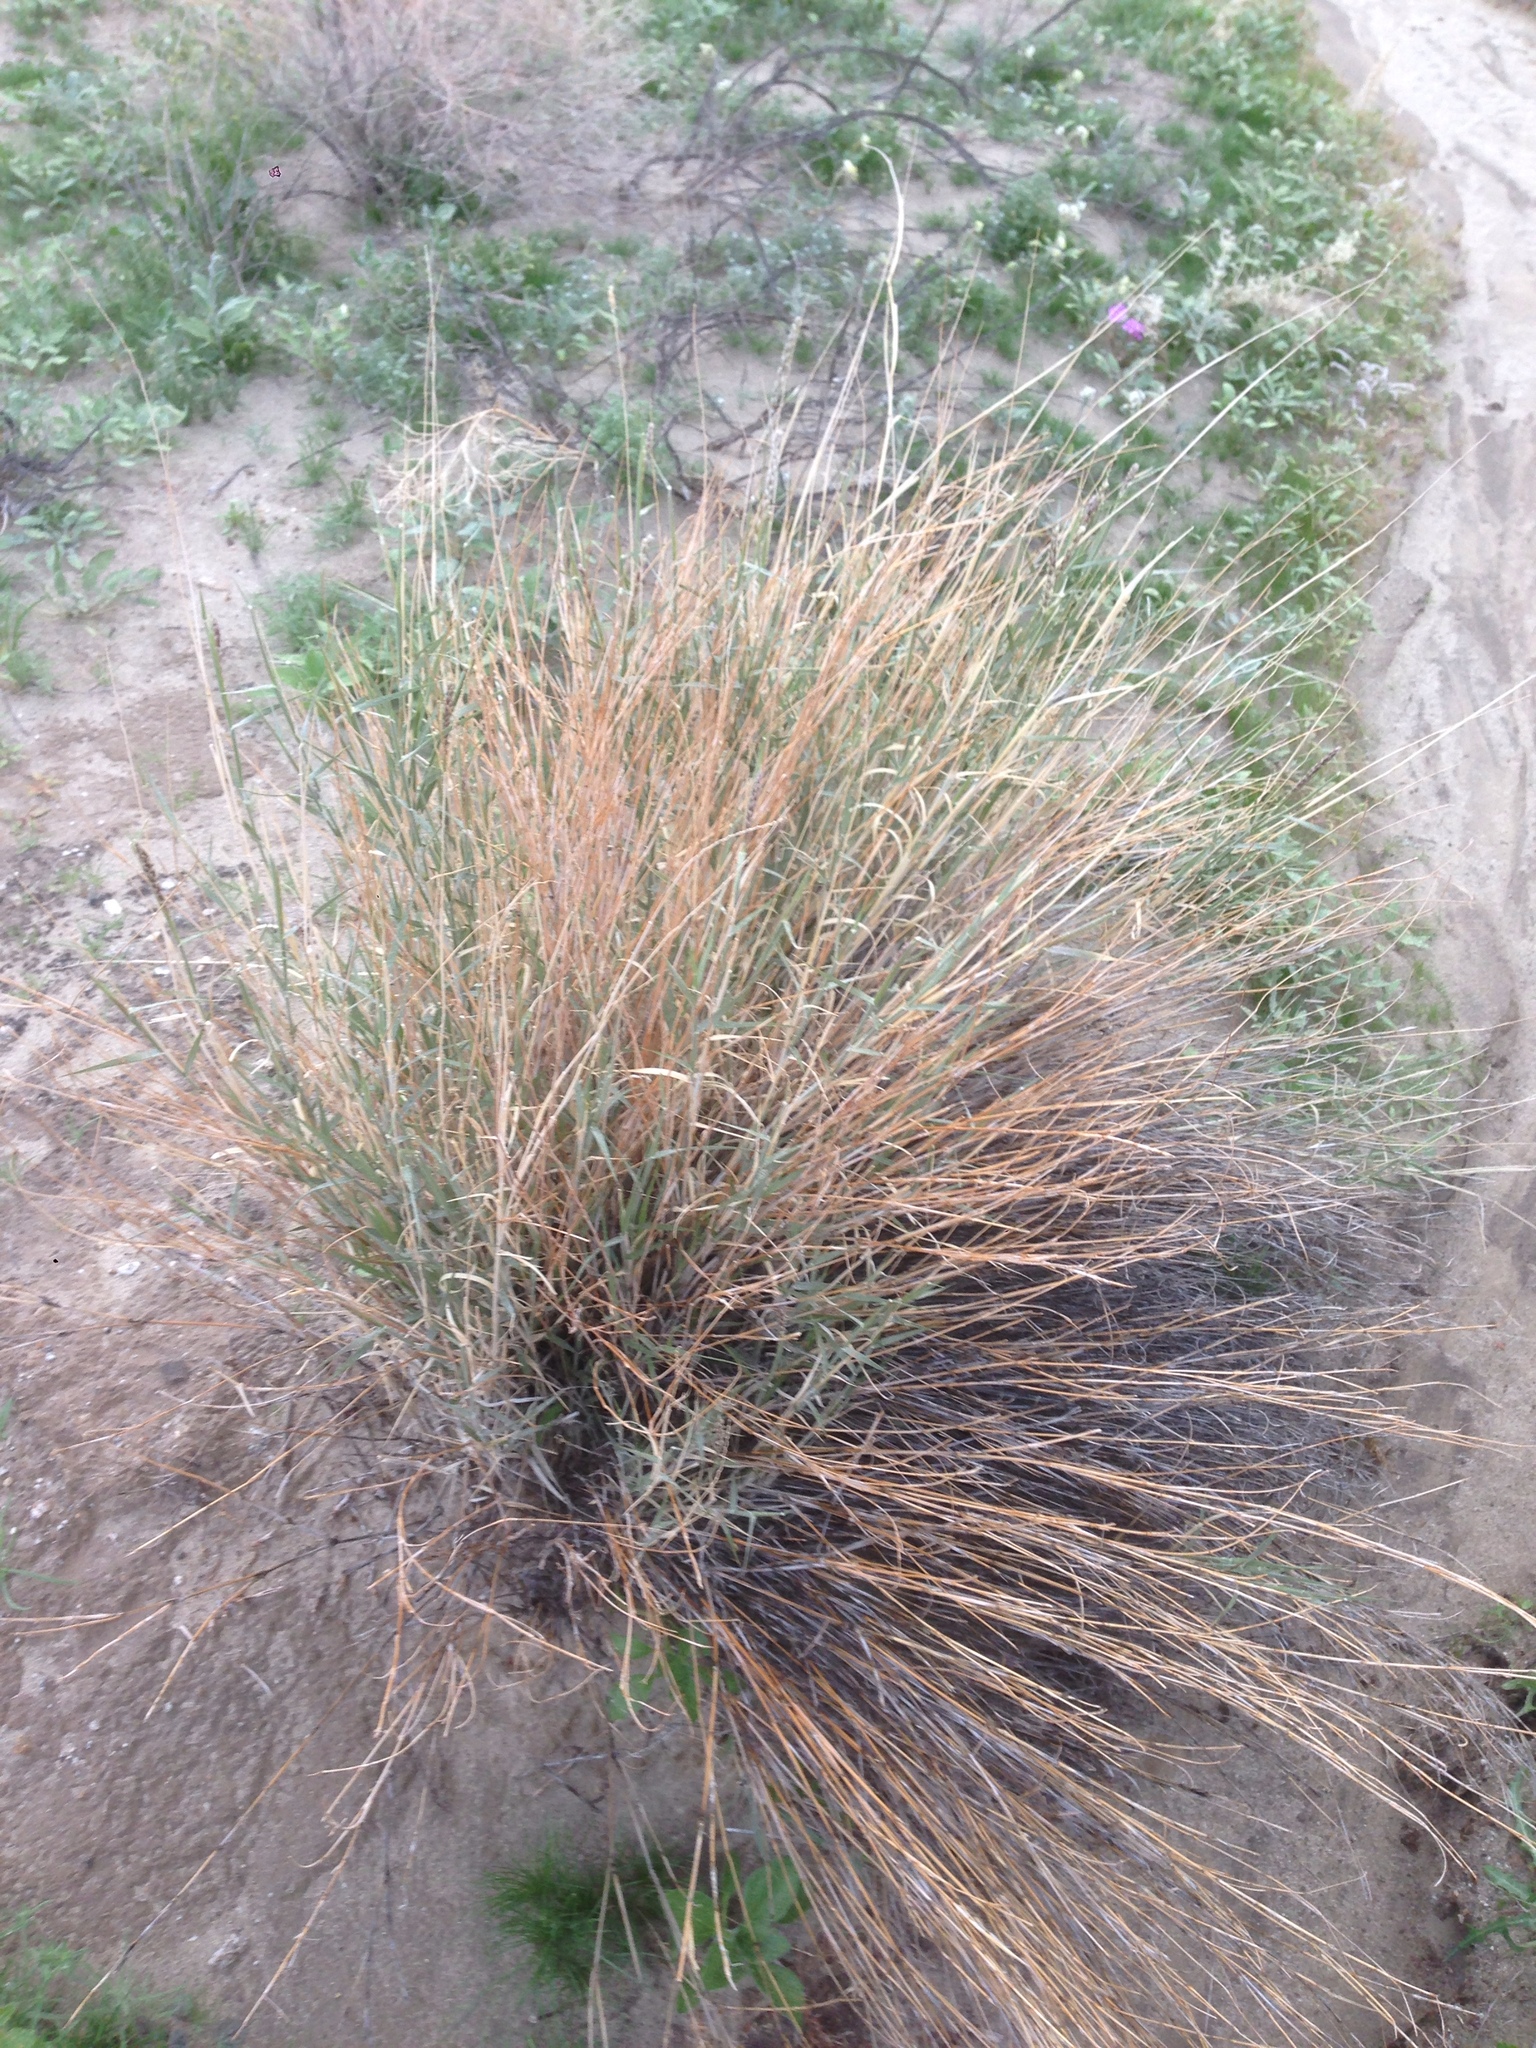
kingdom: Plantae
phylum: Tracheophyta
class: Liliopsida
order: Poales
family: Poaceae
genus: Hilaria
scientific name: Hilaria rigida
